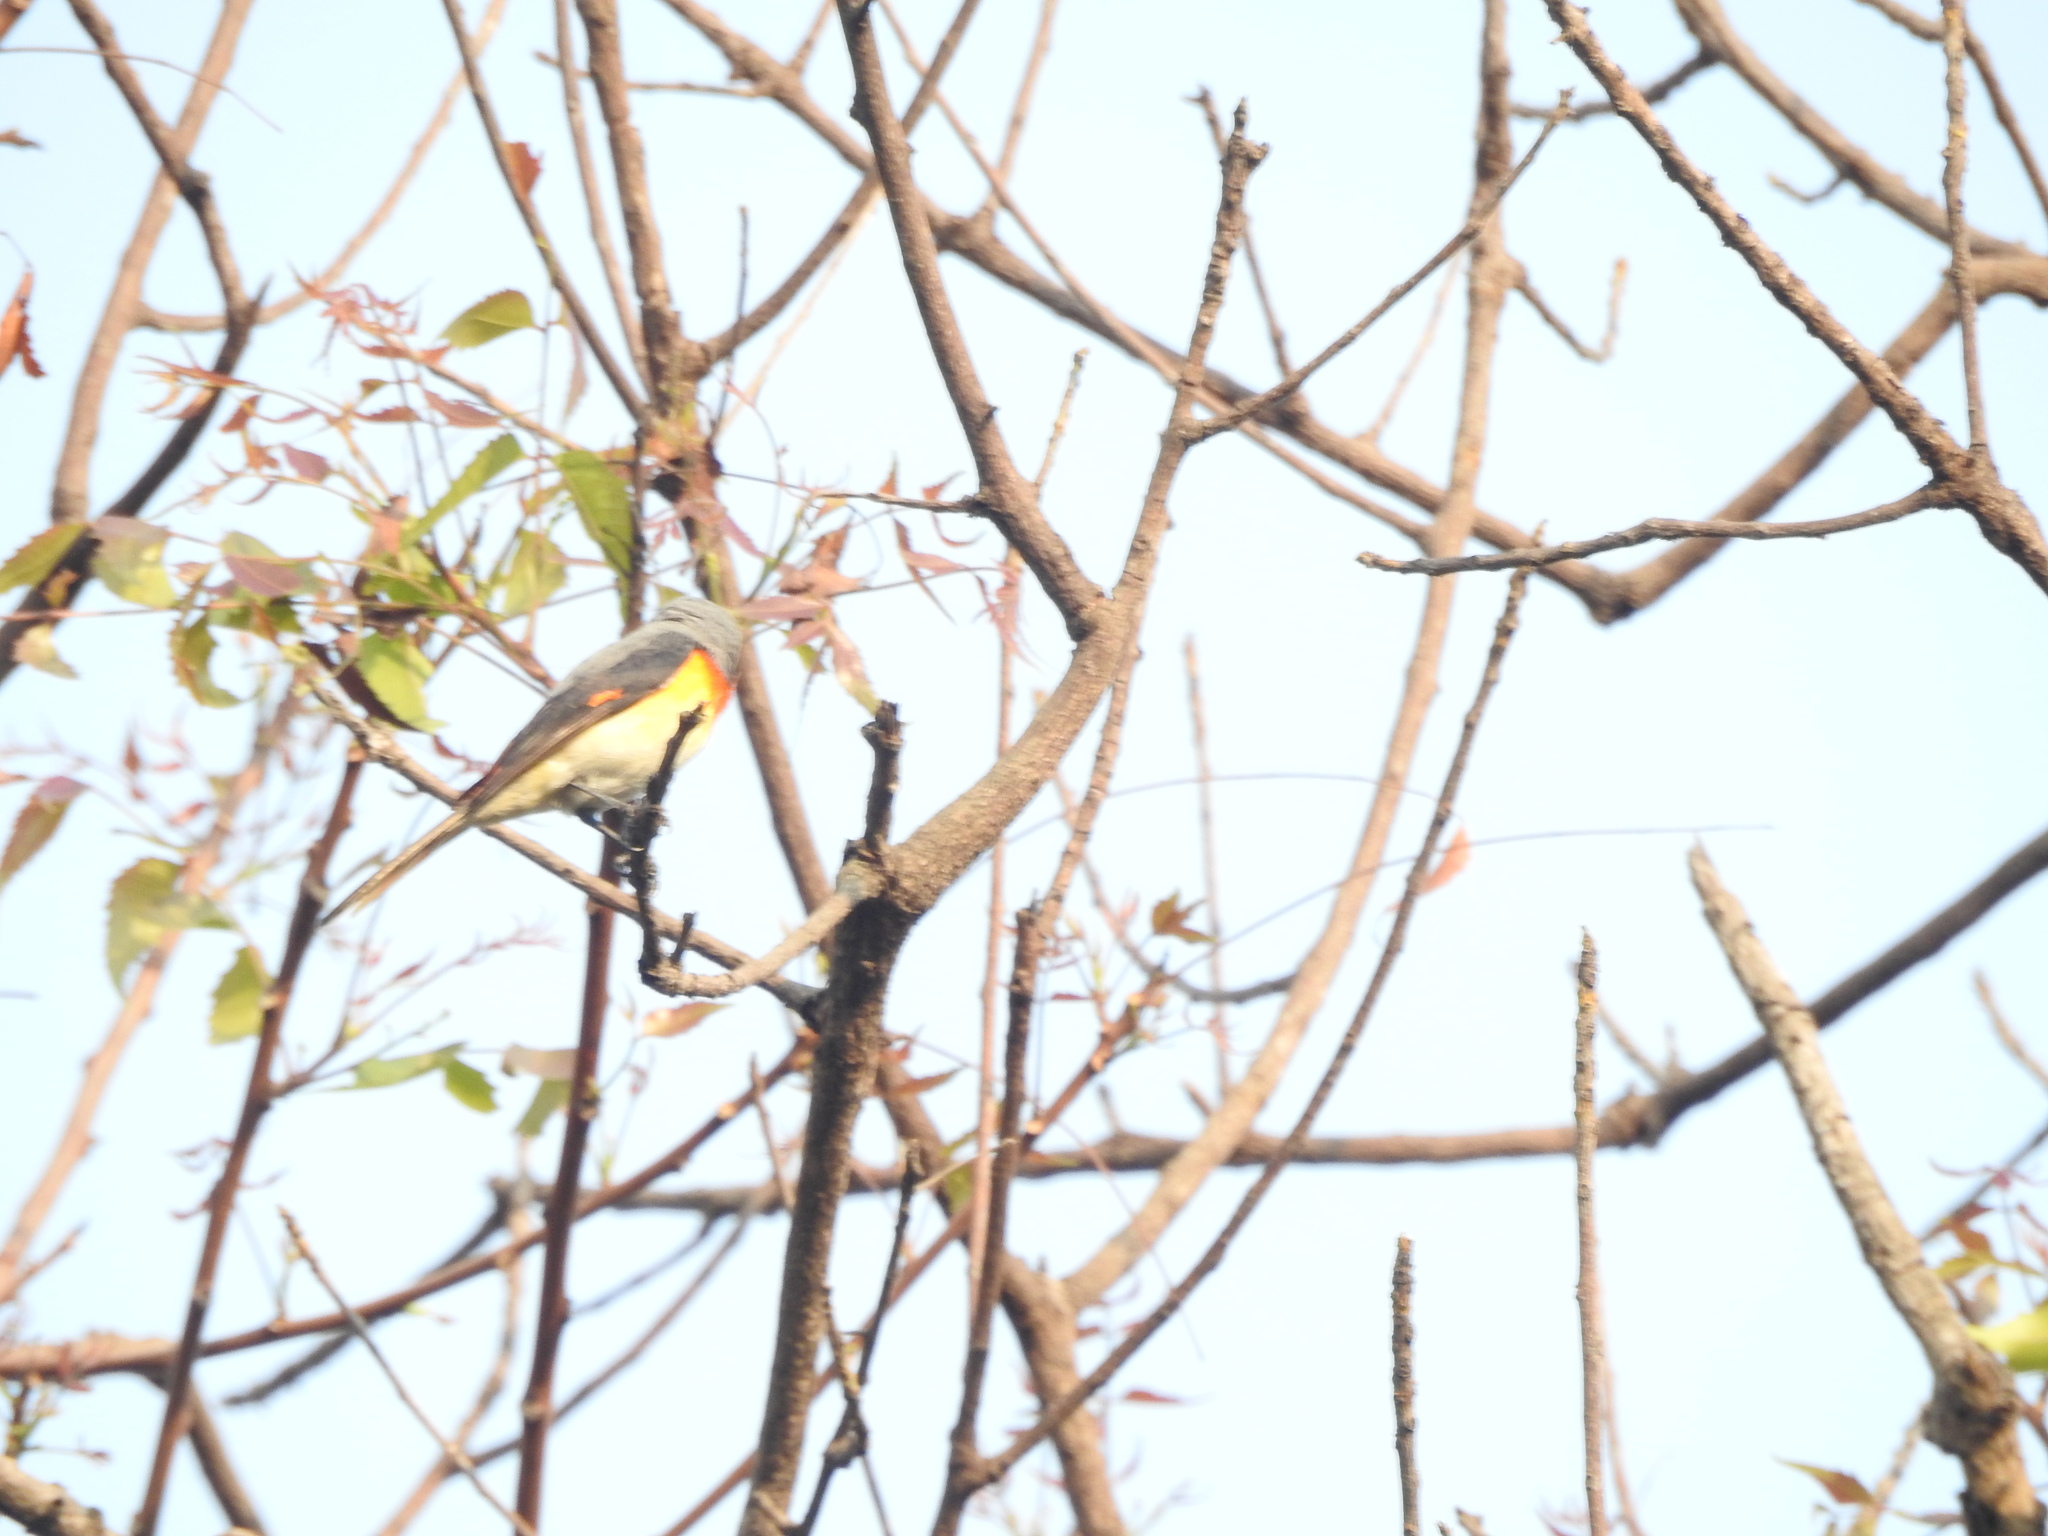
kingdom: Animalia
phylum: Chordata
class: Aves
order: Passeriformes
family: Campephagidae
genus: Pericrocotus
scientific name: Pericrocotus cinnamomeus
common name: Small minivet
